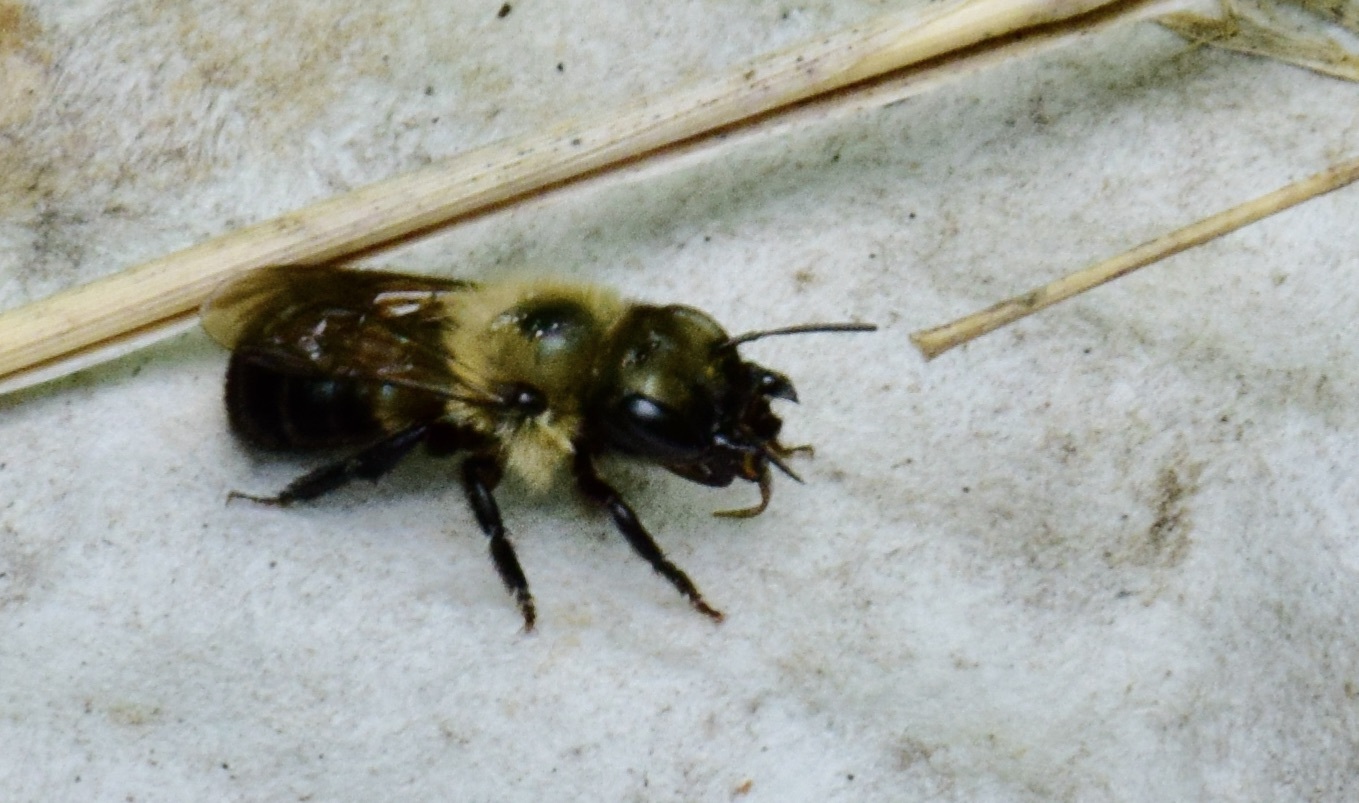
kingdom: Animalia
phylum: Arthropoda
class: Insecta
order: Hymenoptera
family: Megachilidae
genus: Osmia
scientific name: Osmia bucephala
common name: Bufflehead mason bee
